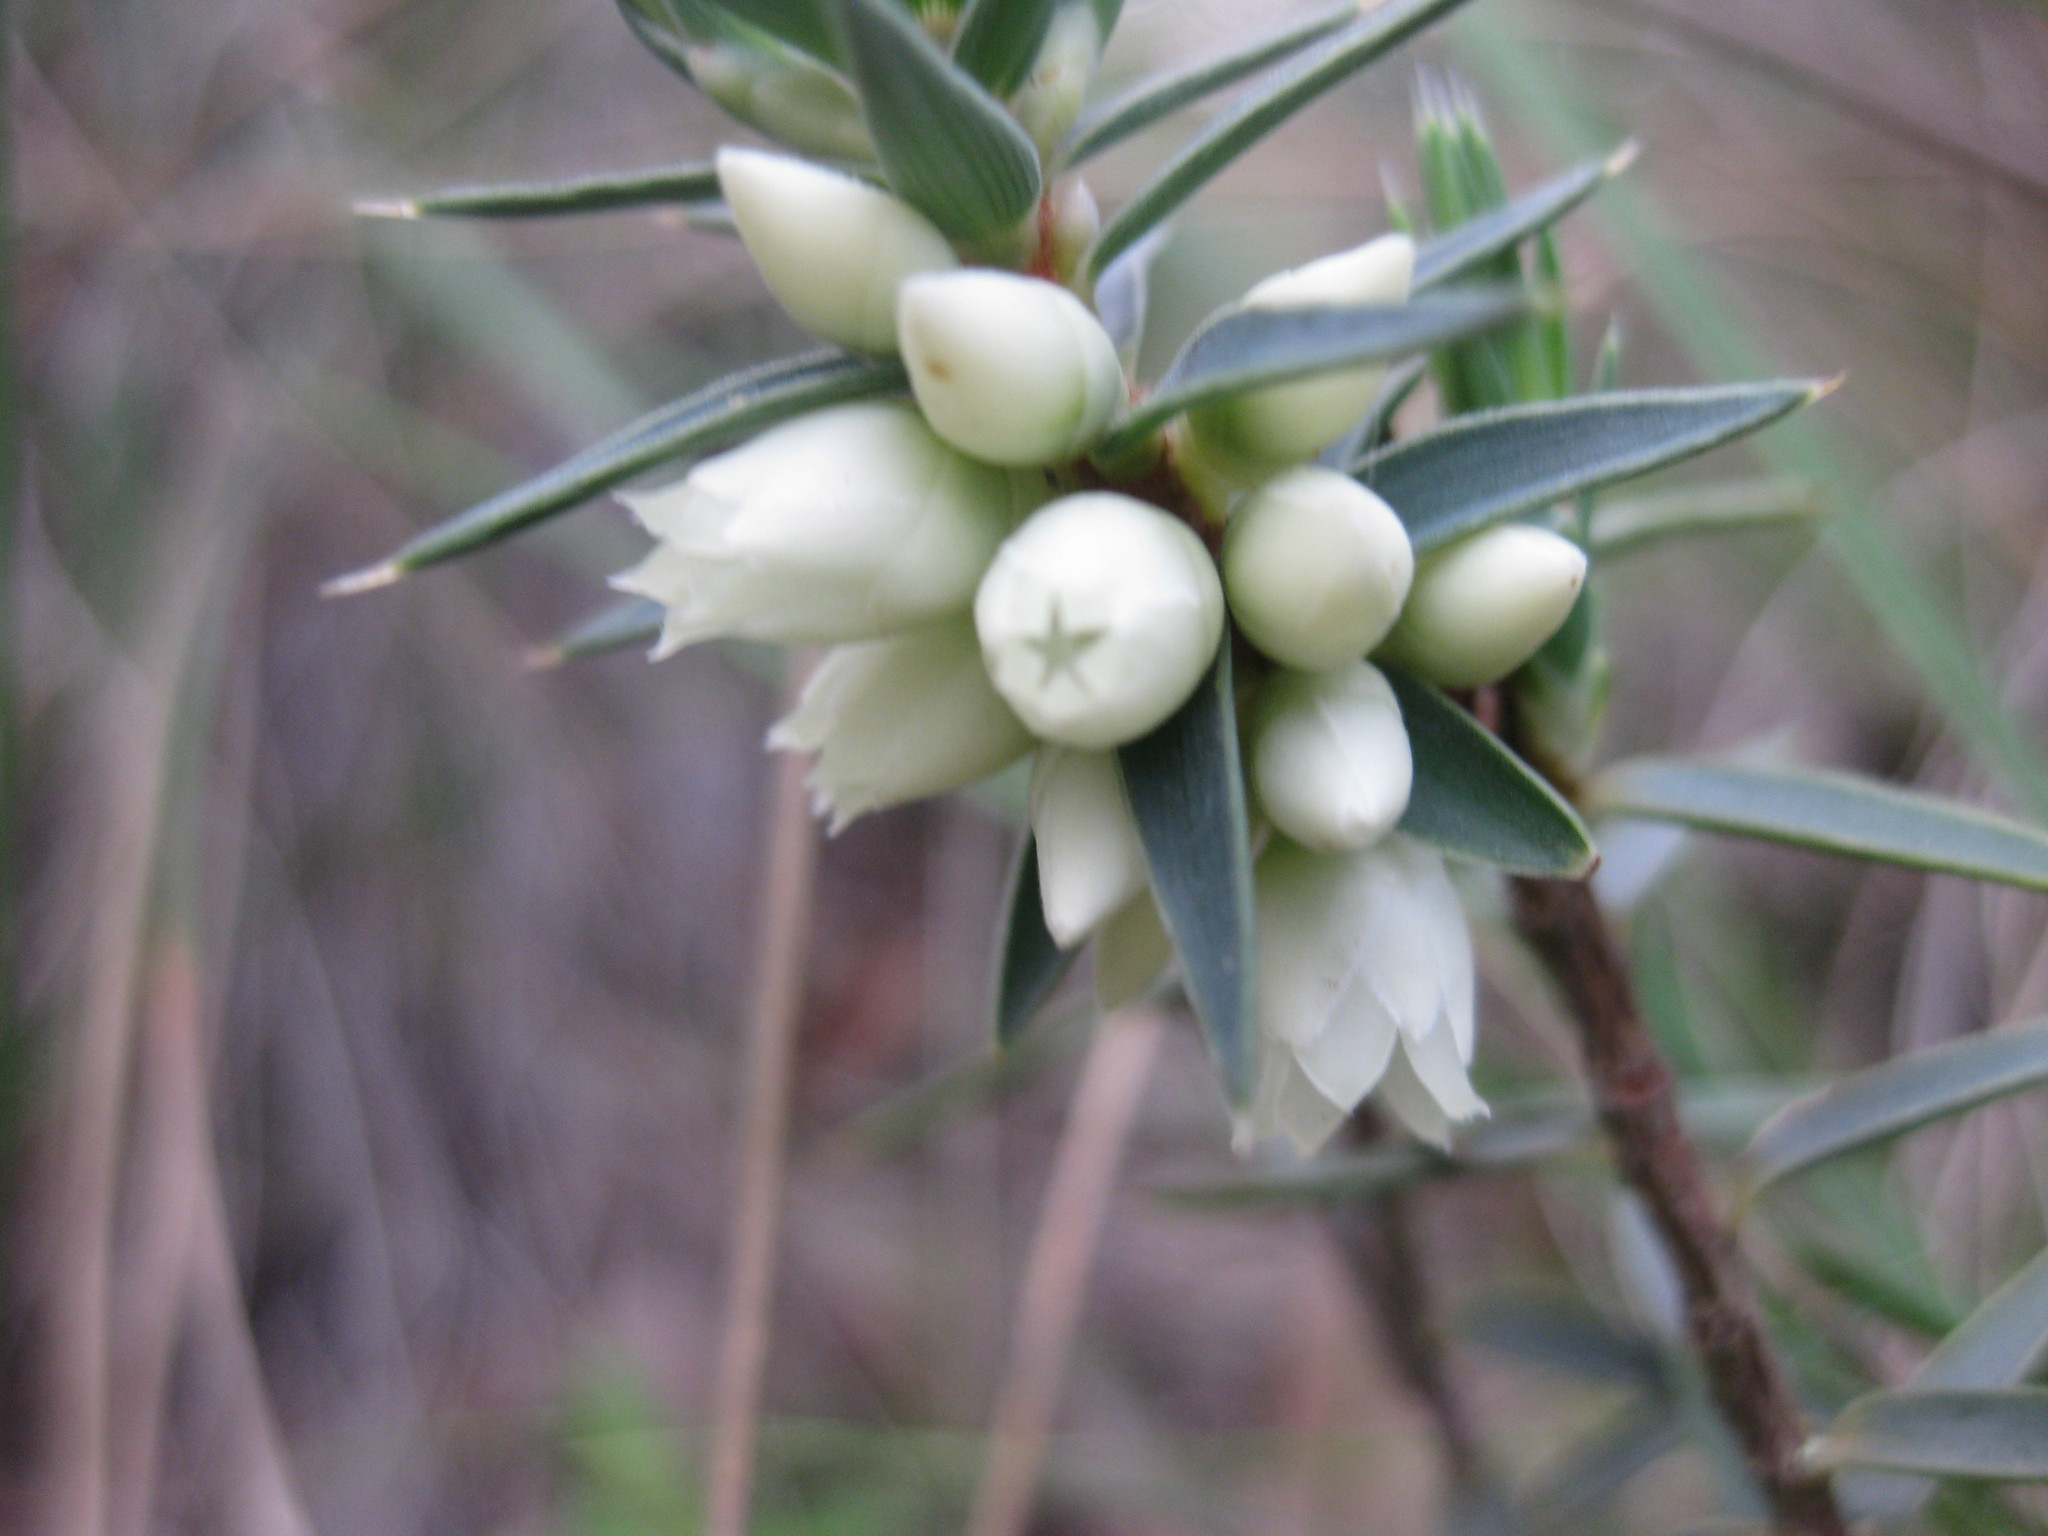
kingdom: Plantae
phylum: Tracheophyta
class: Magnoliopsida
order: Ericales
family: Ericaceae
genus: Melichrus
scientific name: Melichrus urceolatus
